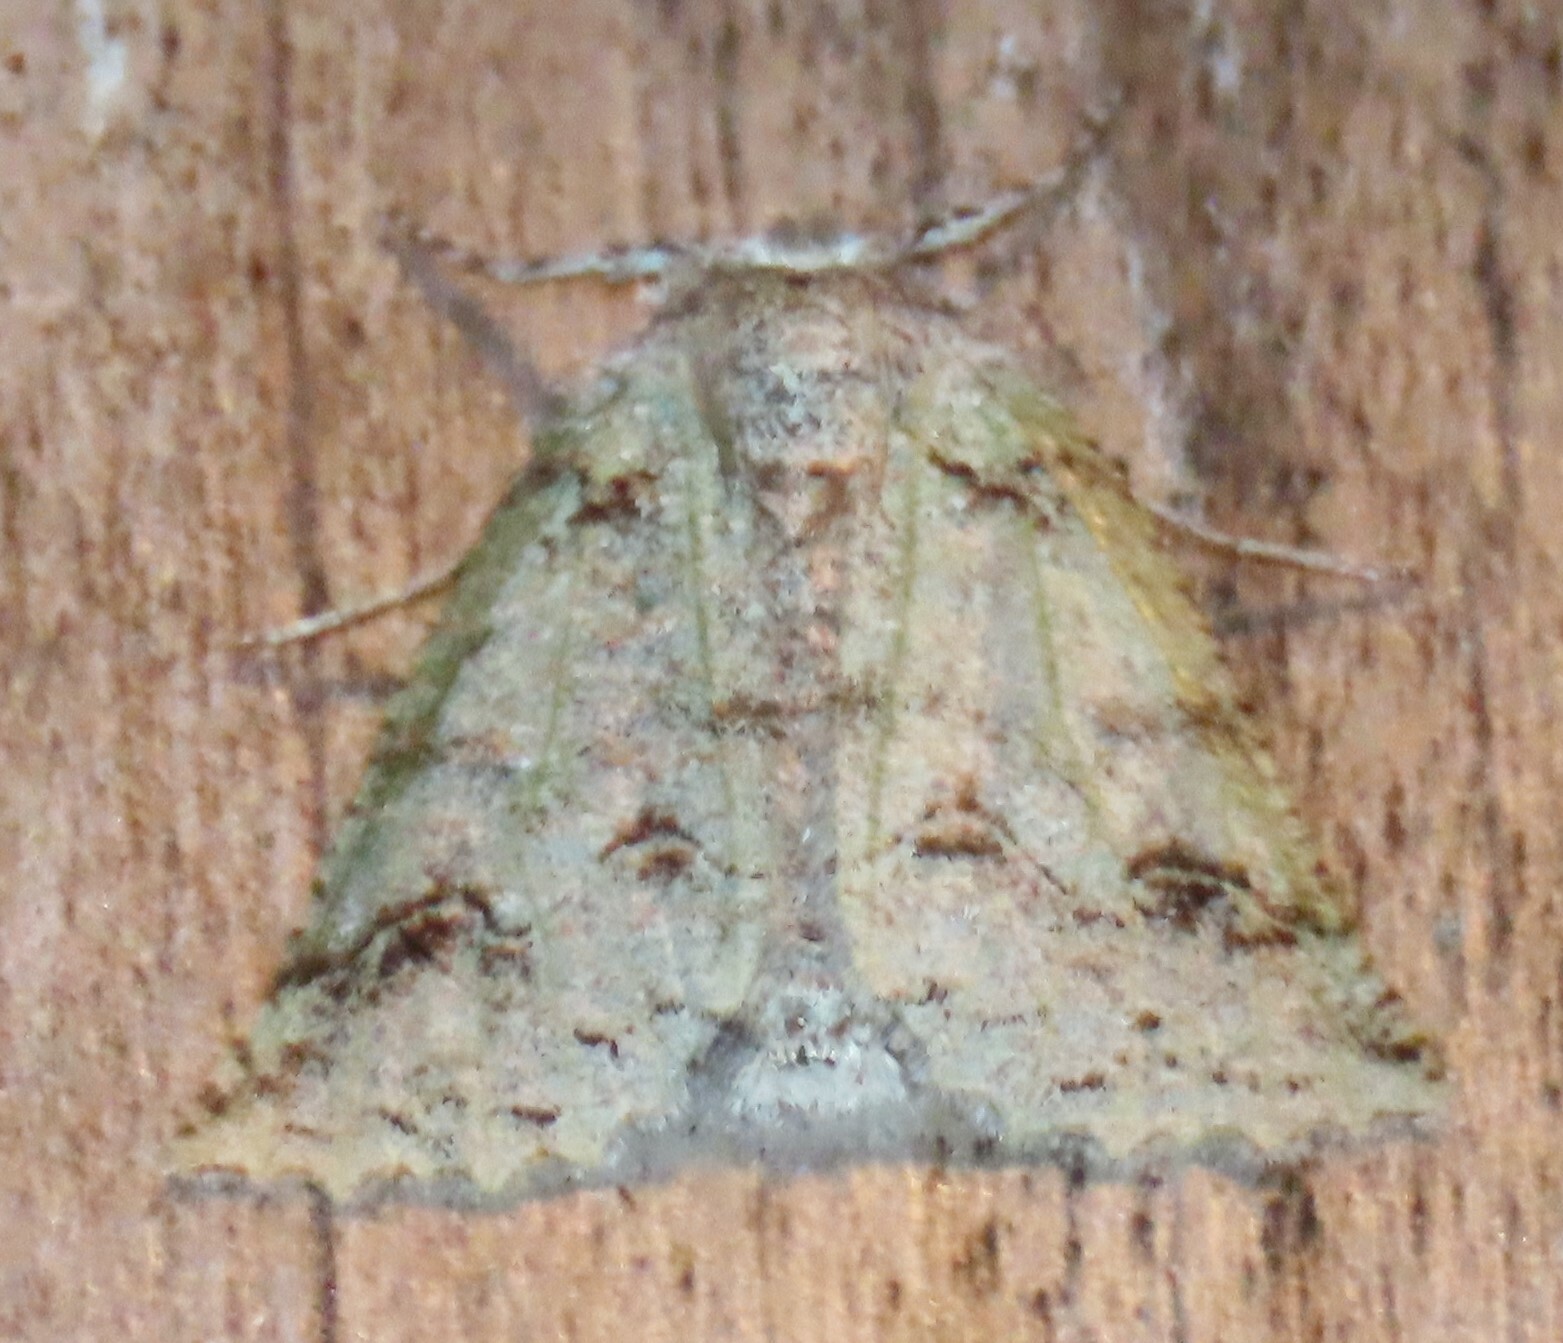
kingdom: Animalia
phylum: Arthropoda
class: Insecta
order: Lepidoptera
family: Geometridae
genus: Declana
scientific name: Declana floccosa
